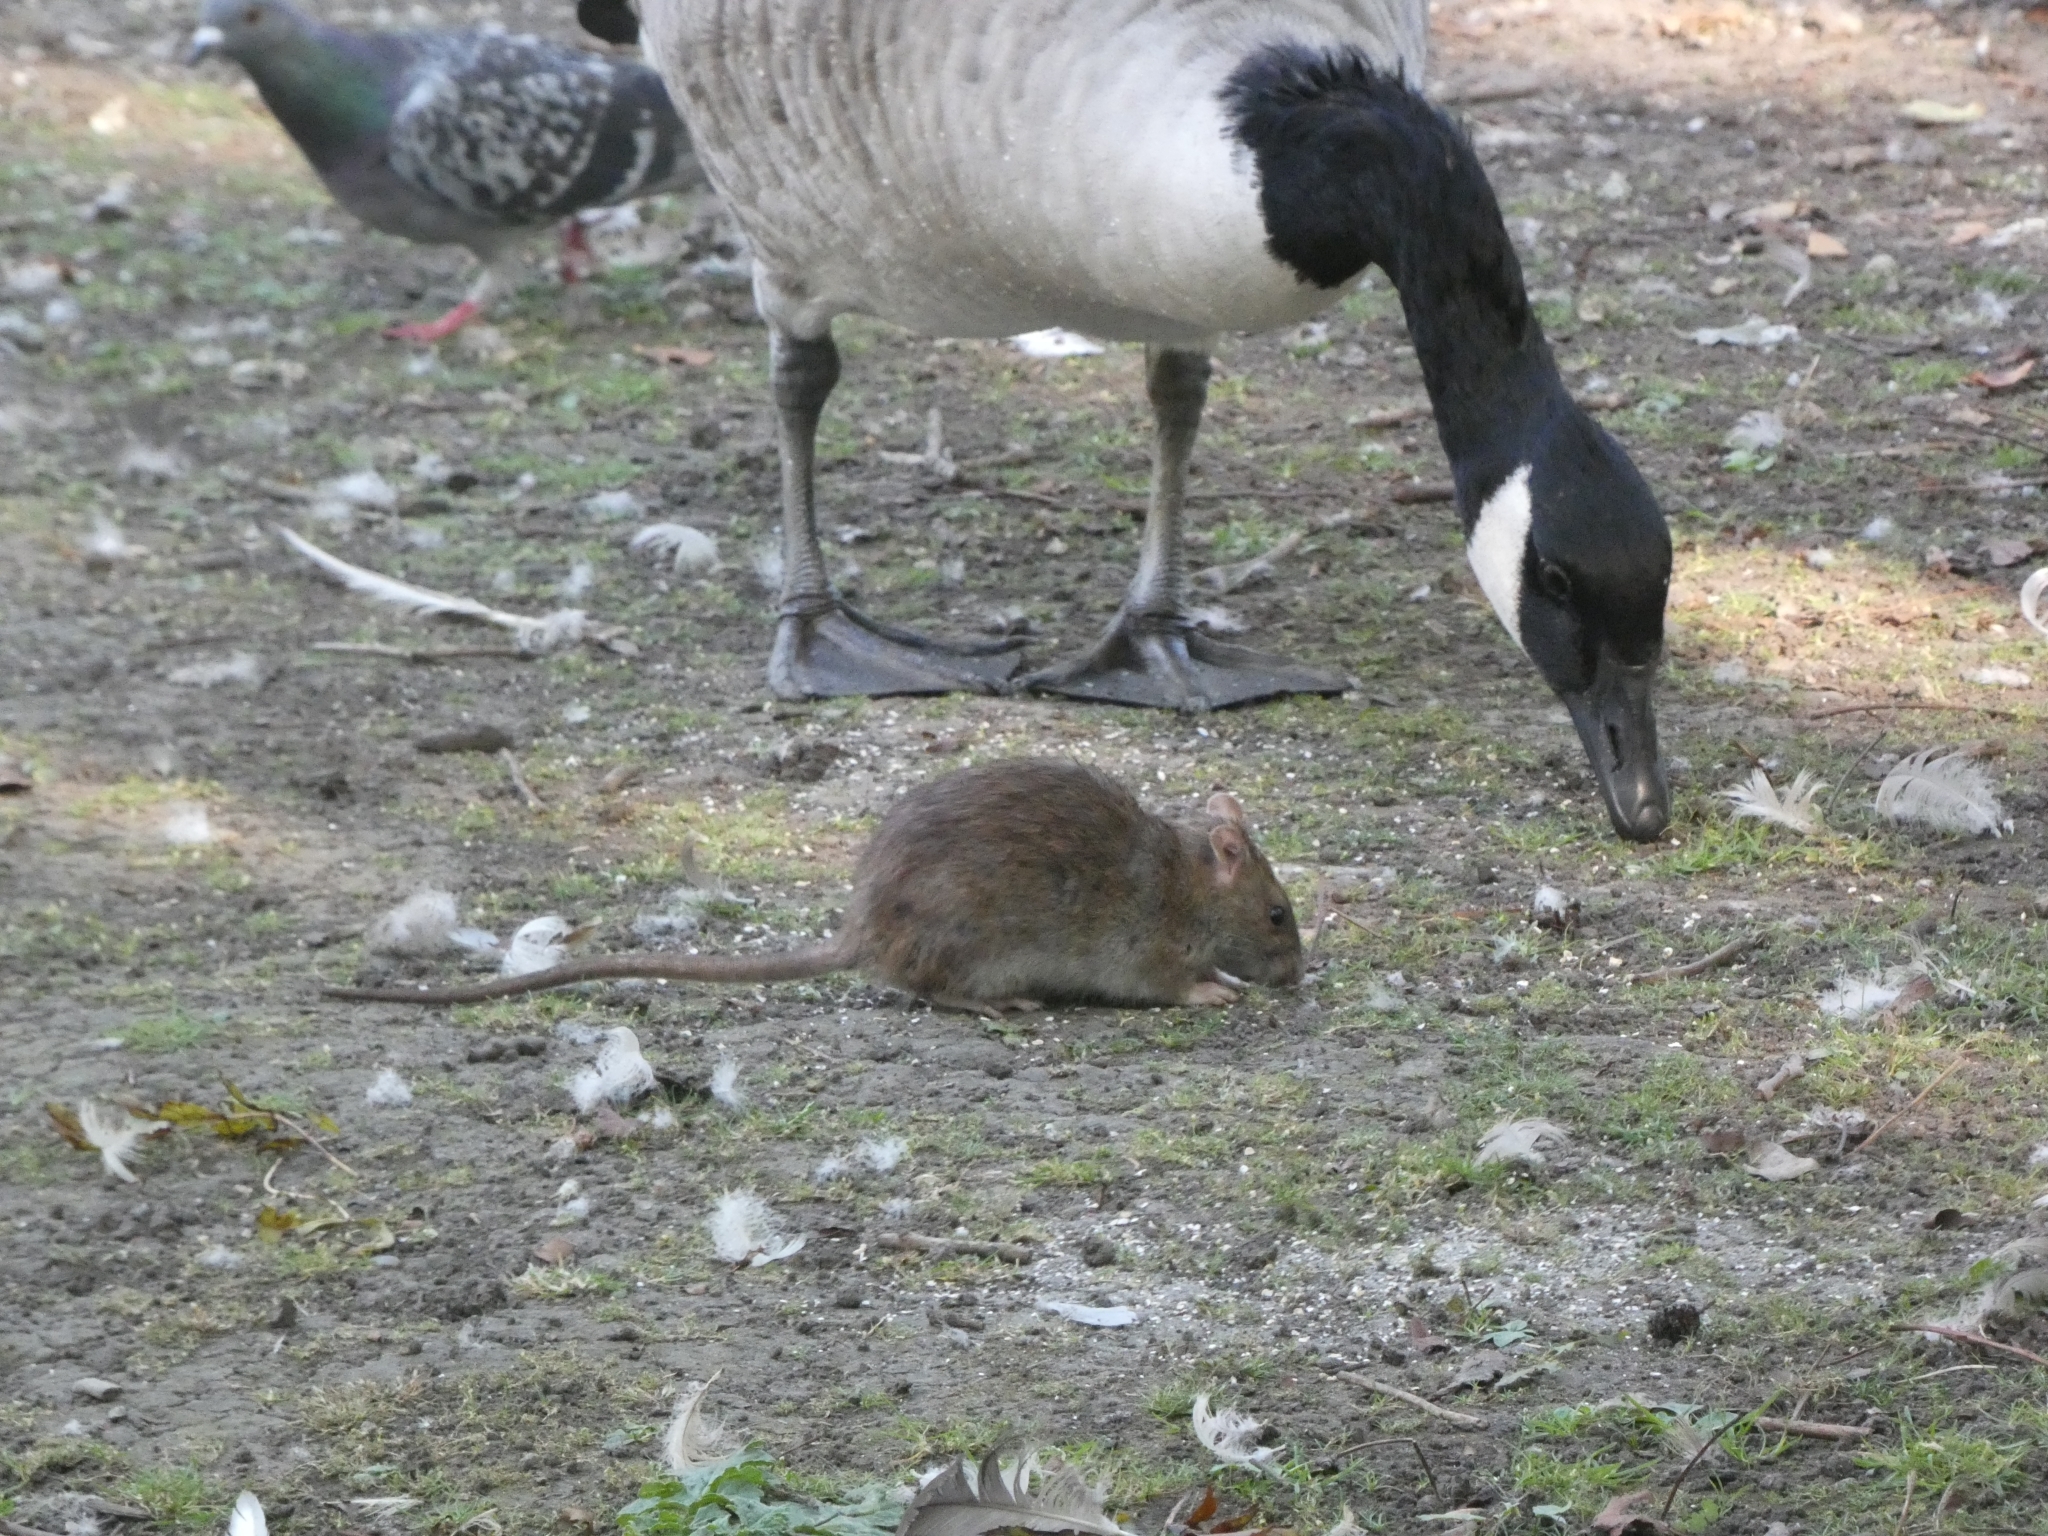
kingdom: Animalia
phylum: Chordata
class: Mammalia
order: Rodentia
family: Muridae
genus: Rattus
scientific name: Rattus norvegicus
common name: Brown rat
